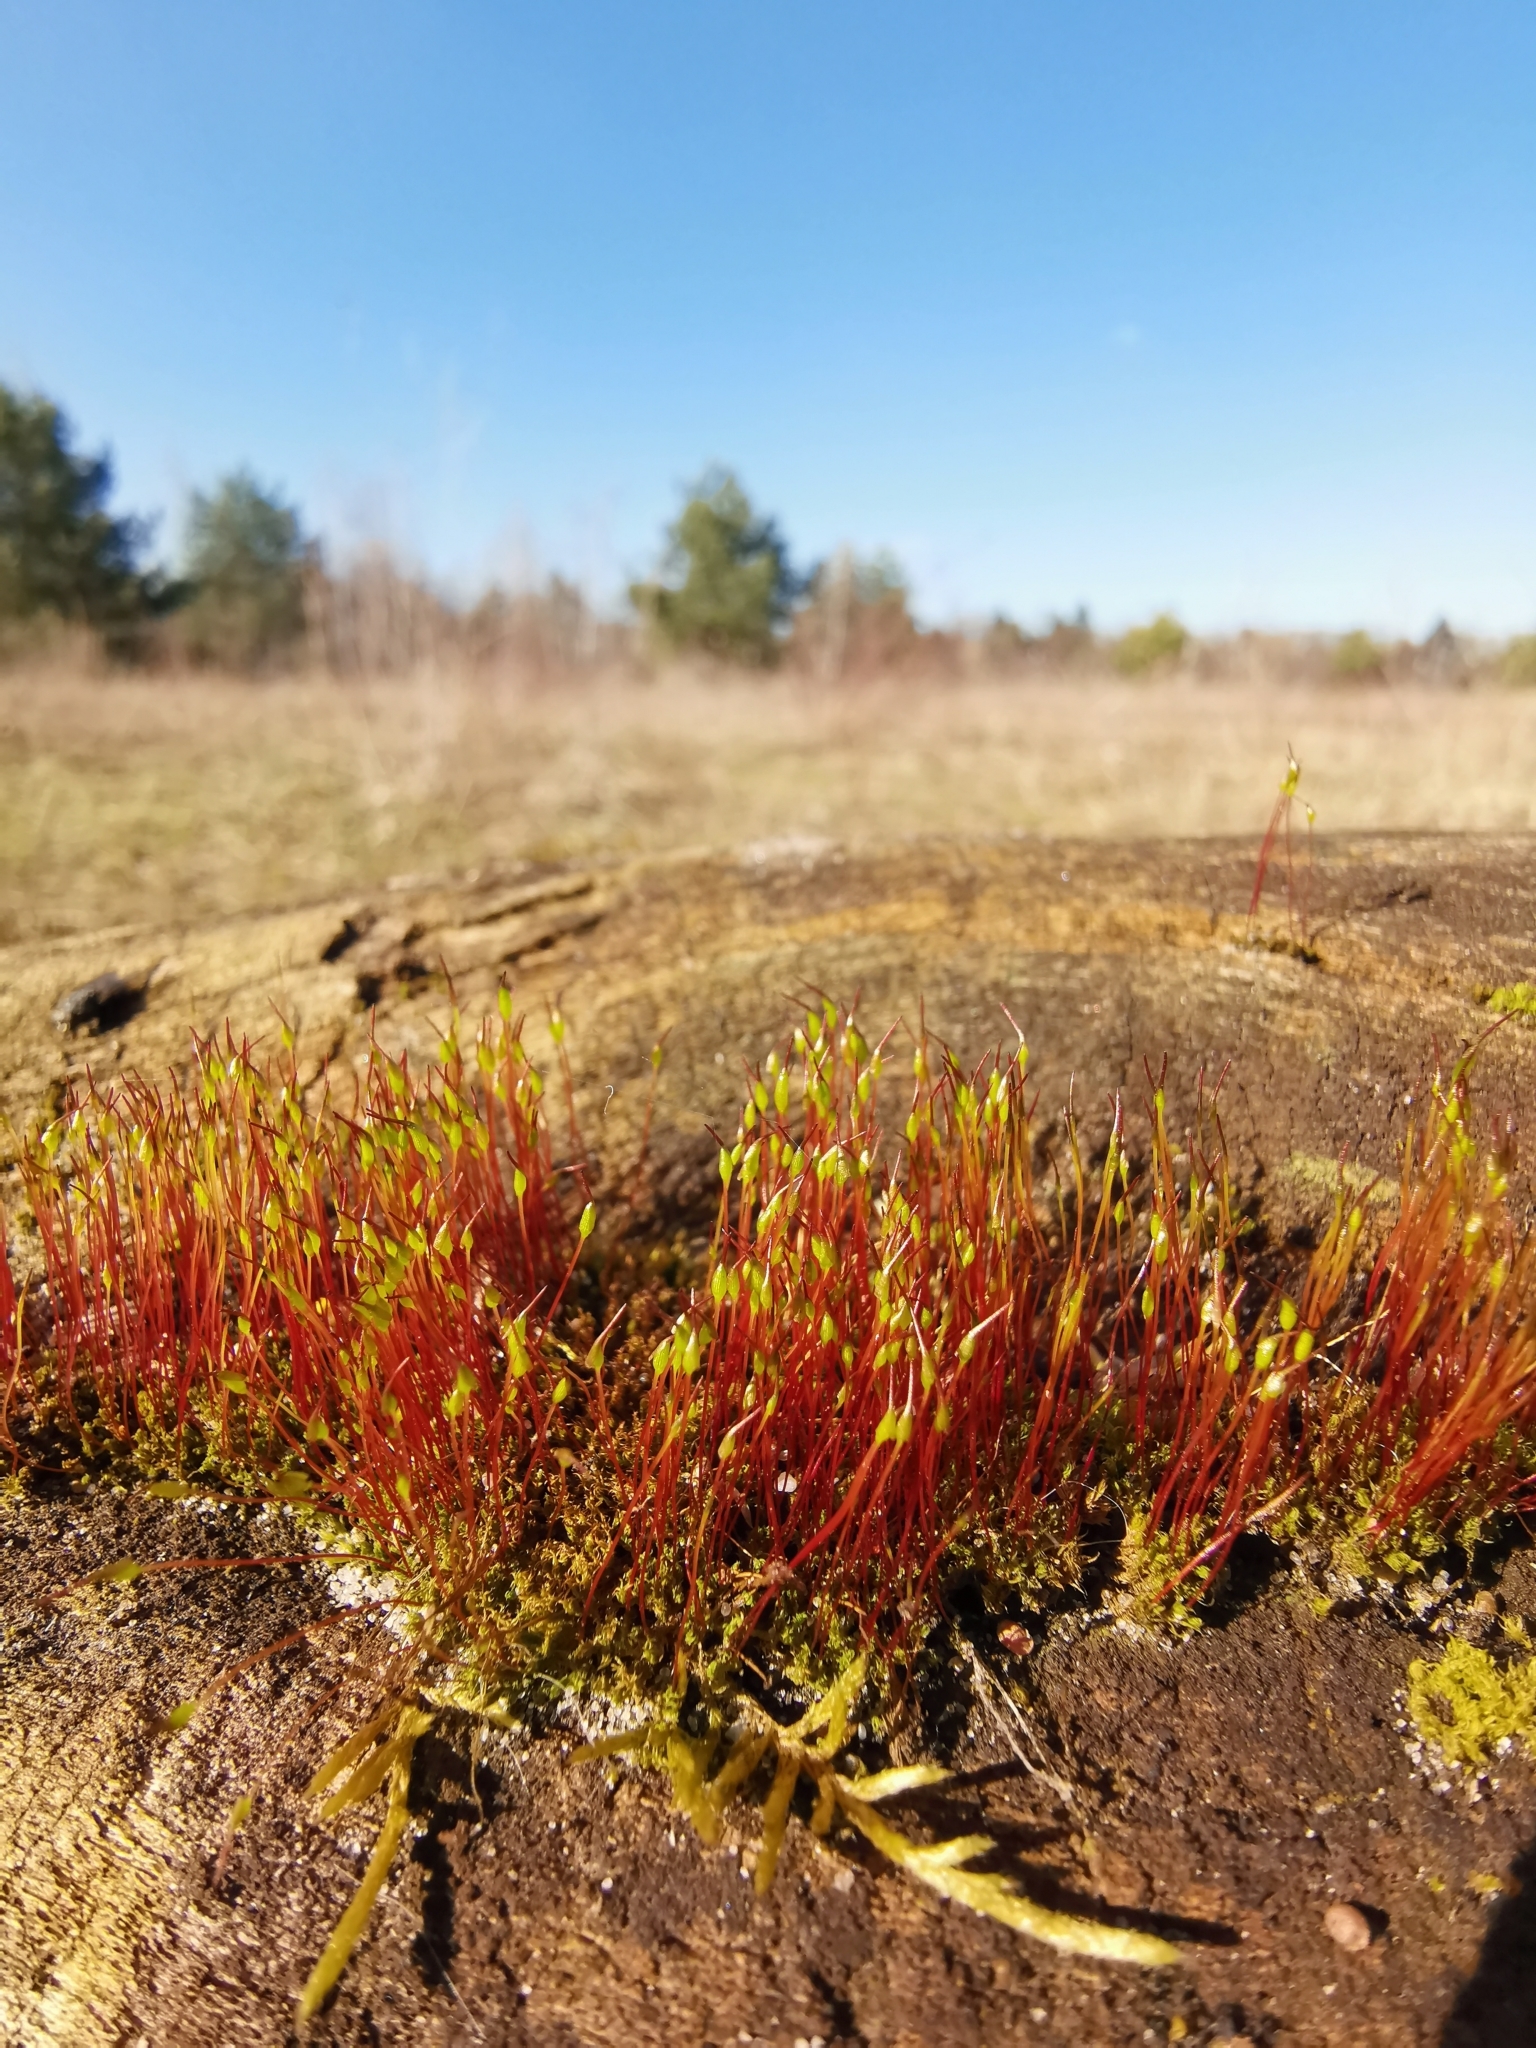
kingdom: Plantae
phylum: Bryophyta
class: Bryopsida
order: Dicranales
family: Ditrichaceae
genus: Ceratodon
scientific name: Ceratodon purpureus
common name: Redshank
